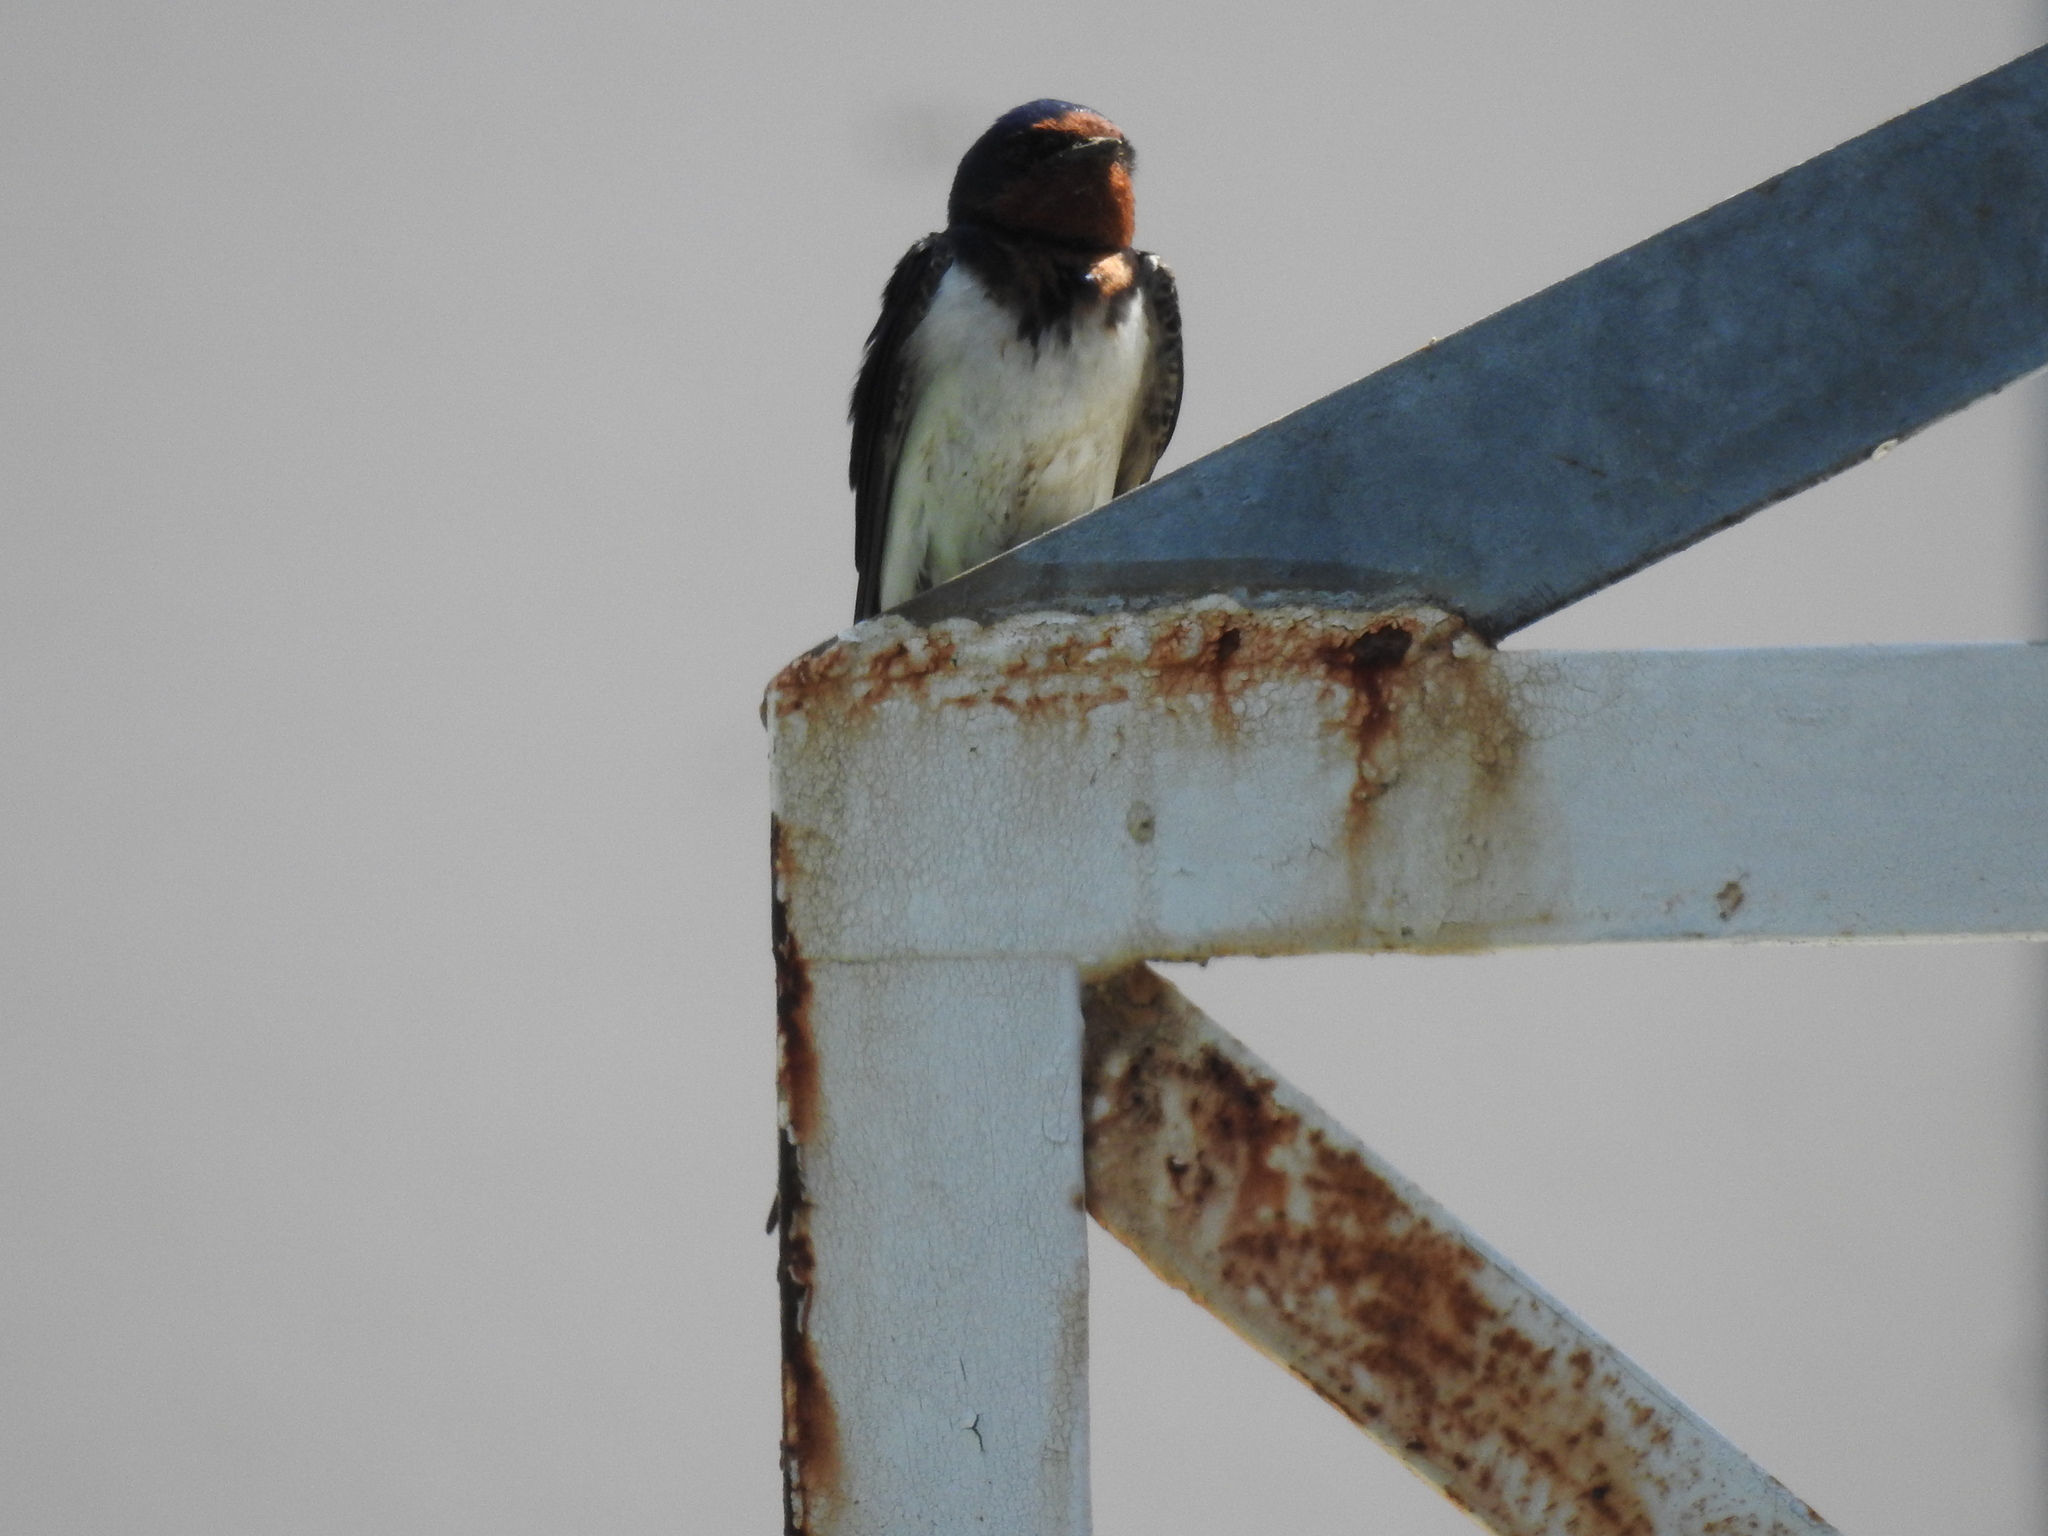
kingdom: Animalia
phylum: Chordata
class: Aves
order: Passeriformes
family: Hirundinidae
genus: Hirundo
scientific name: Hirundo rustica
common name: Barn swallow
